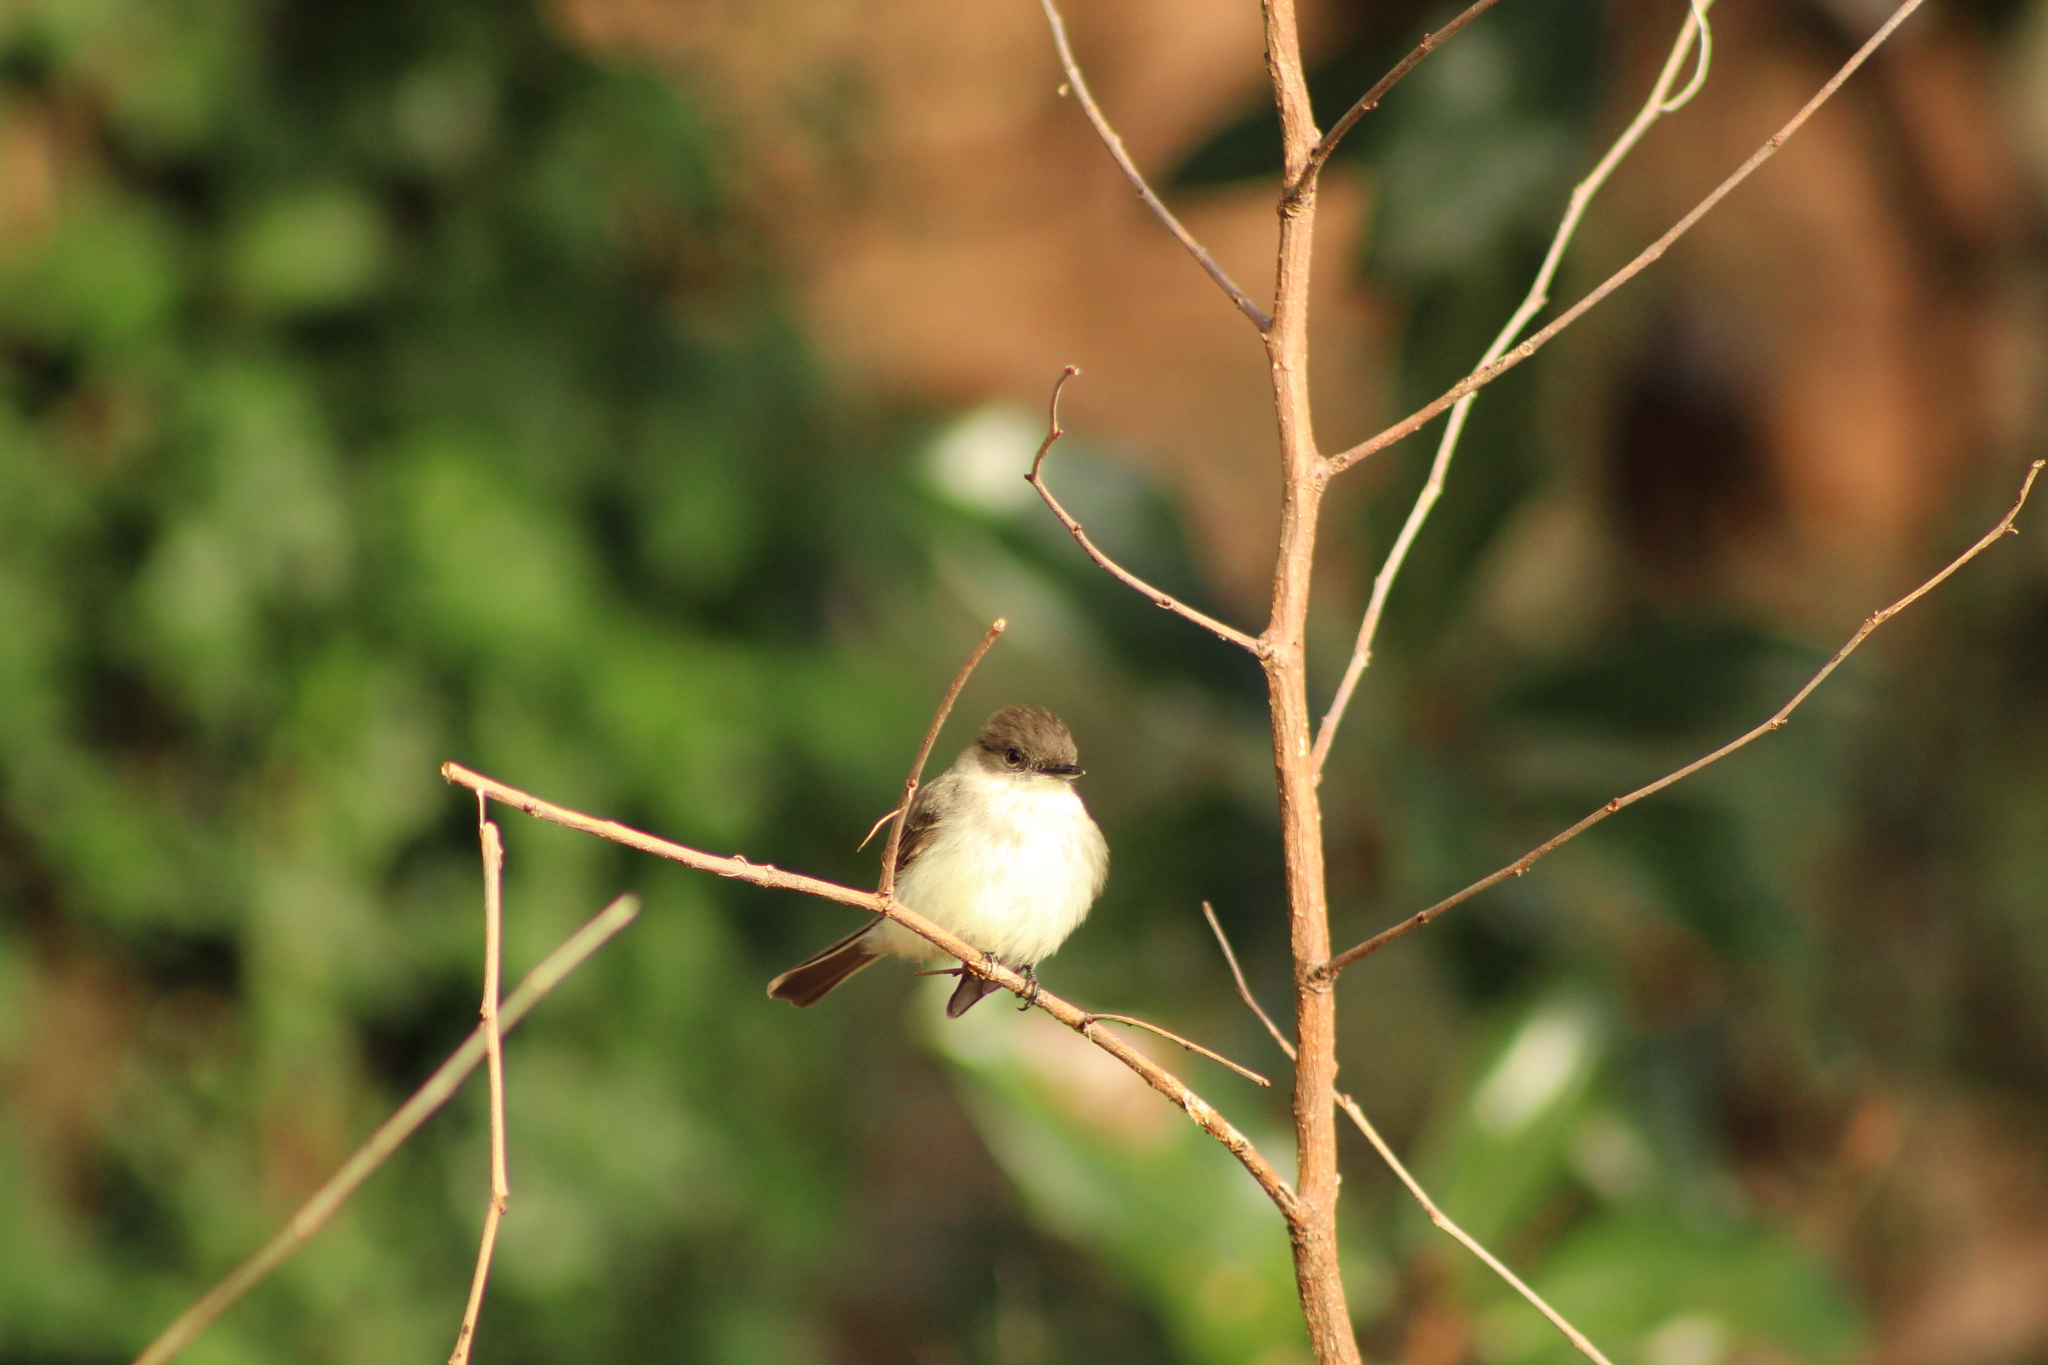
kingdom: Animalia
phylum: Chordata
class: Aves
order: Passeriformes
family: Tyrannidae
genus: Sayornis
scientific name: Sayornis phoebe
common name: Eastern phoebe
